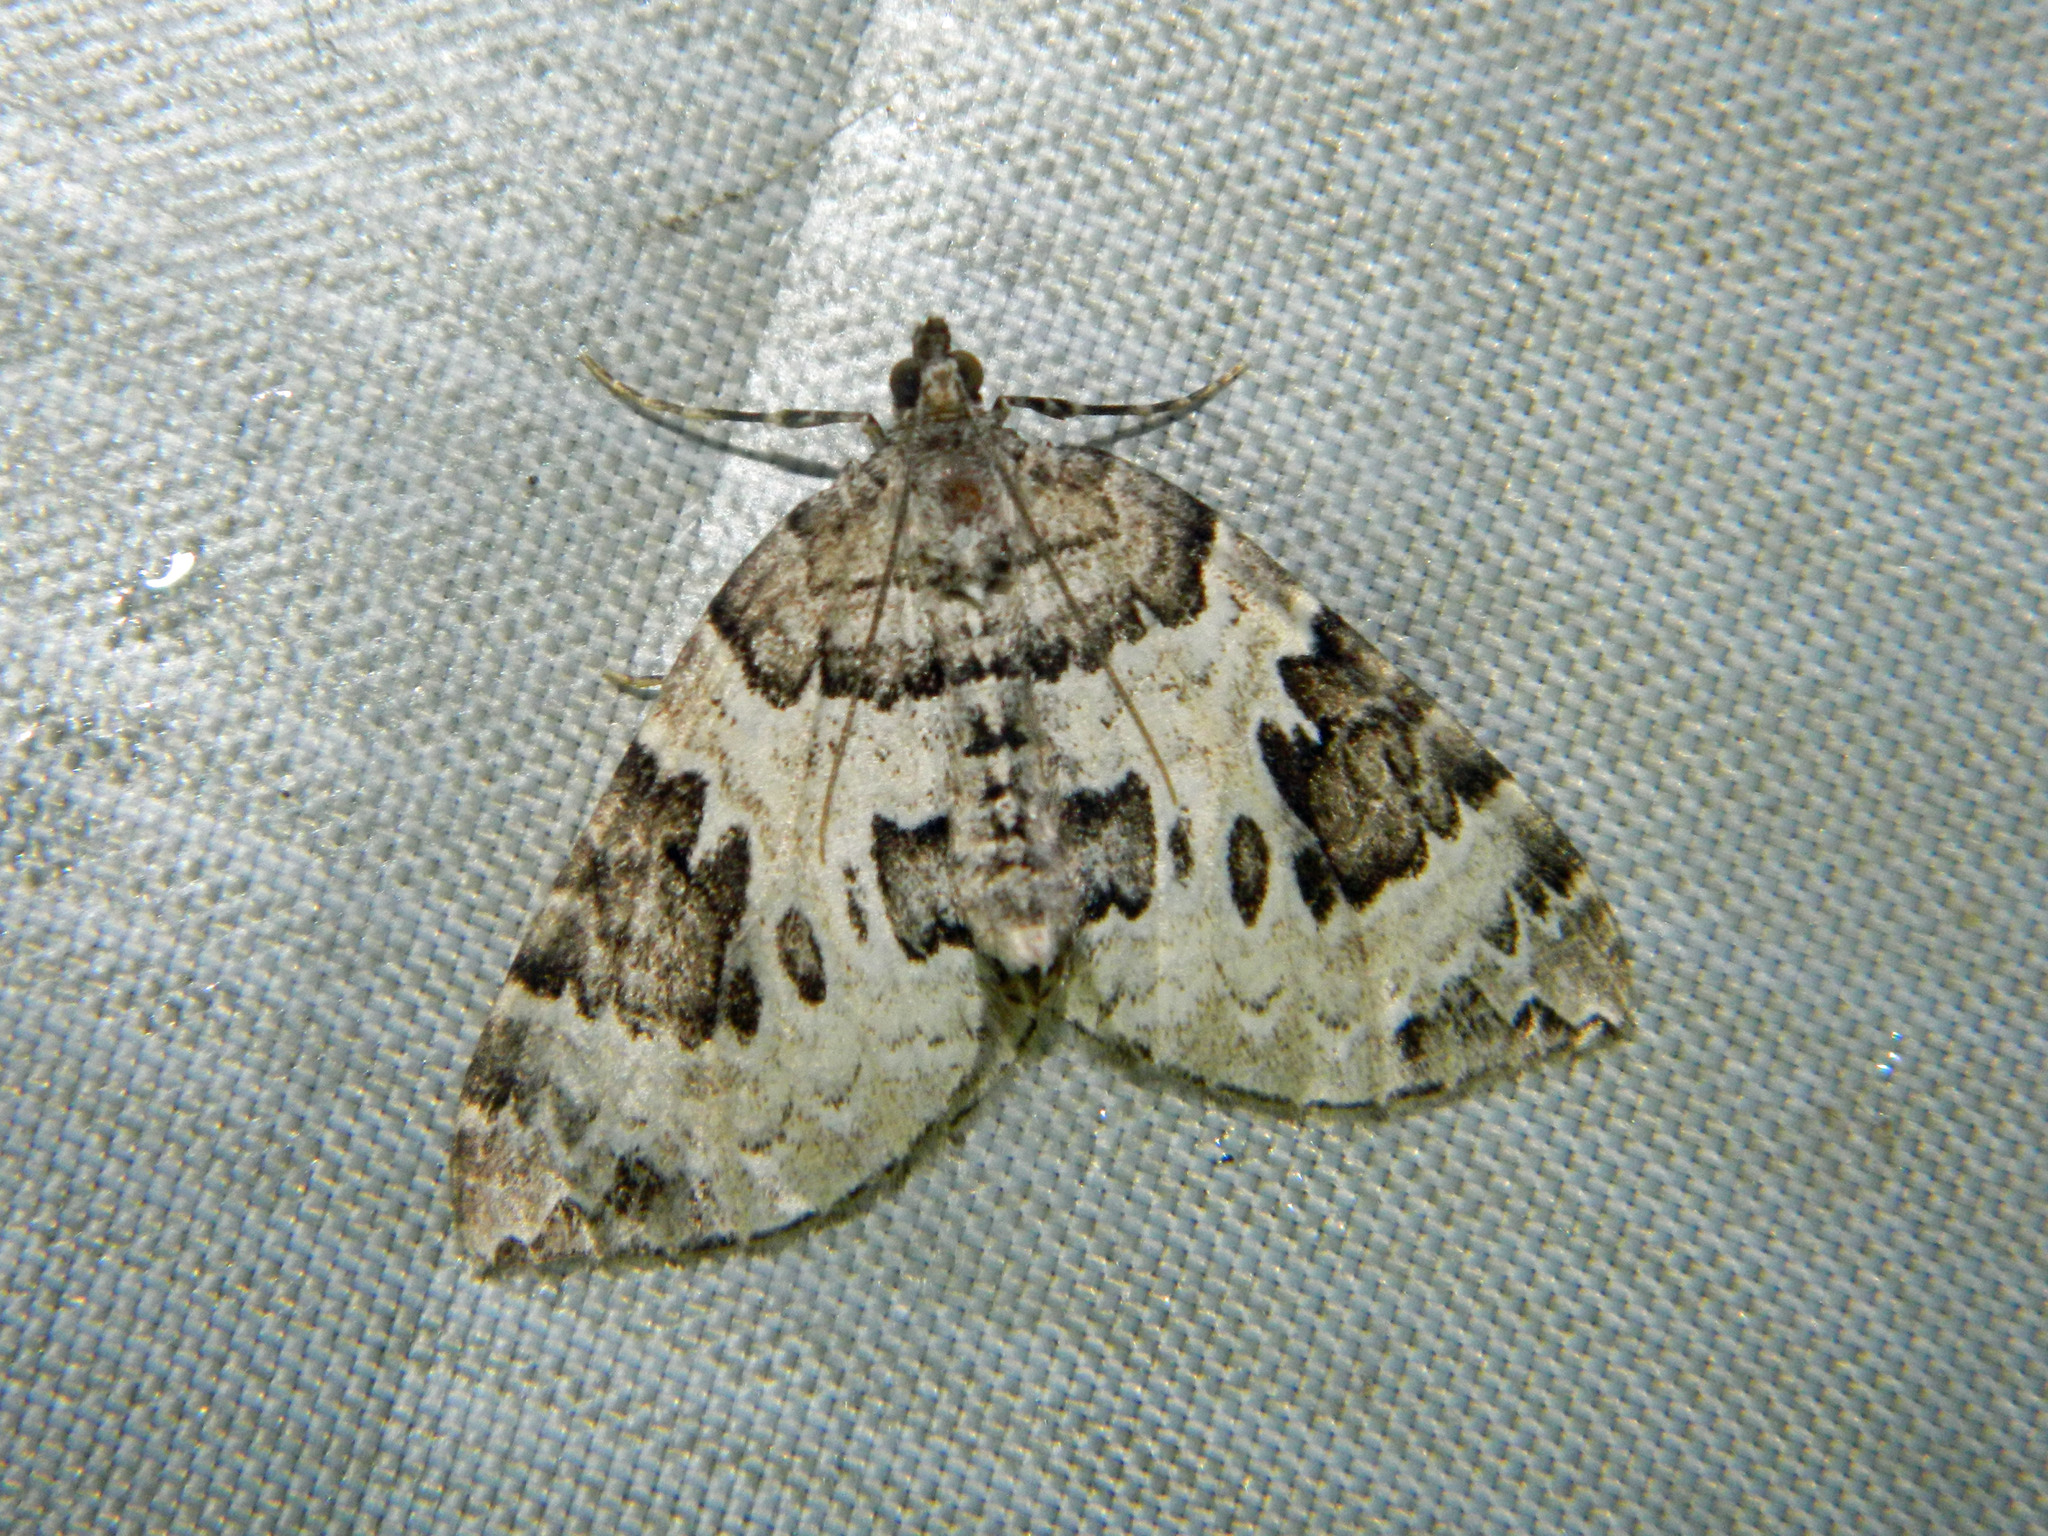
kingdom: Animalia
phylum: Arthropoda
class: Insecta
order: Lepidoptera
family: Geometridae
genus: Eulithis
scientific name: Eulithis explanata
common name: White eulithis
